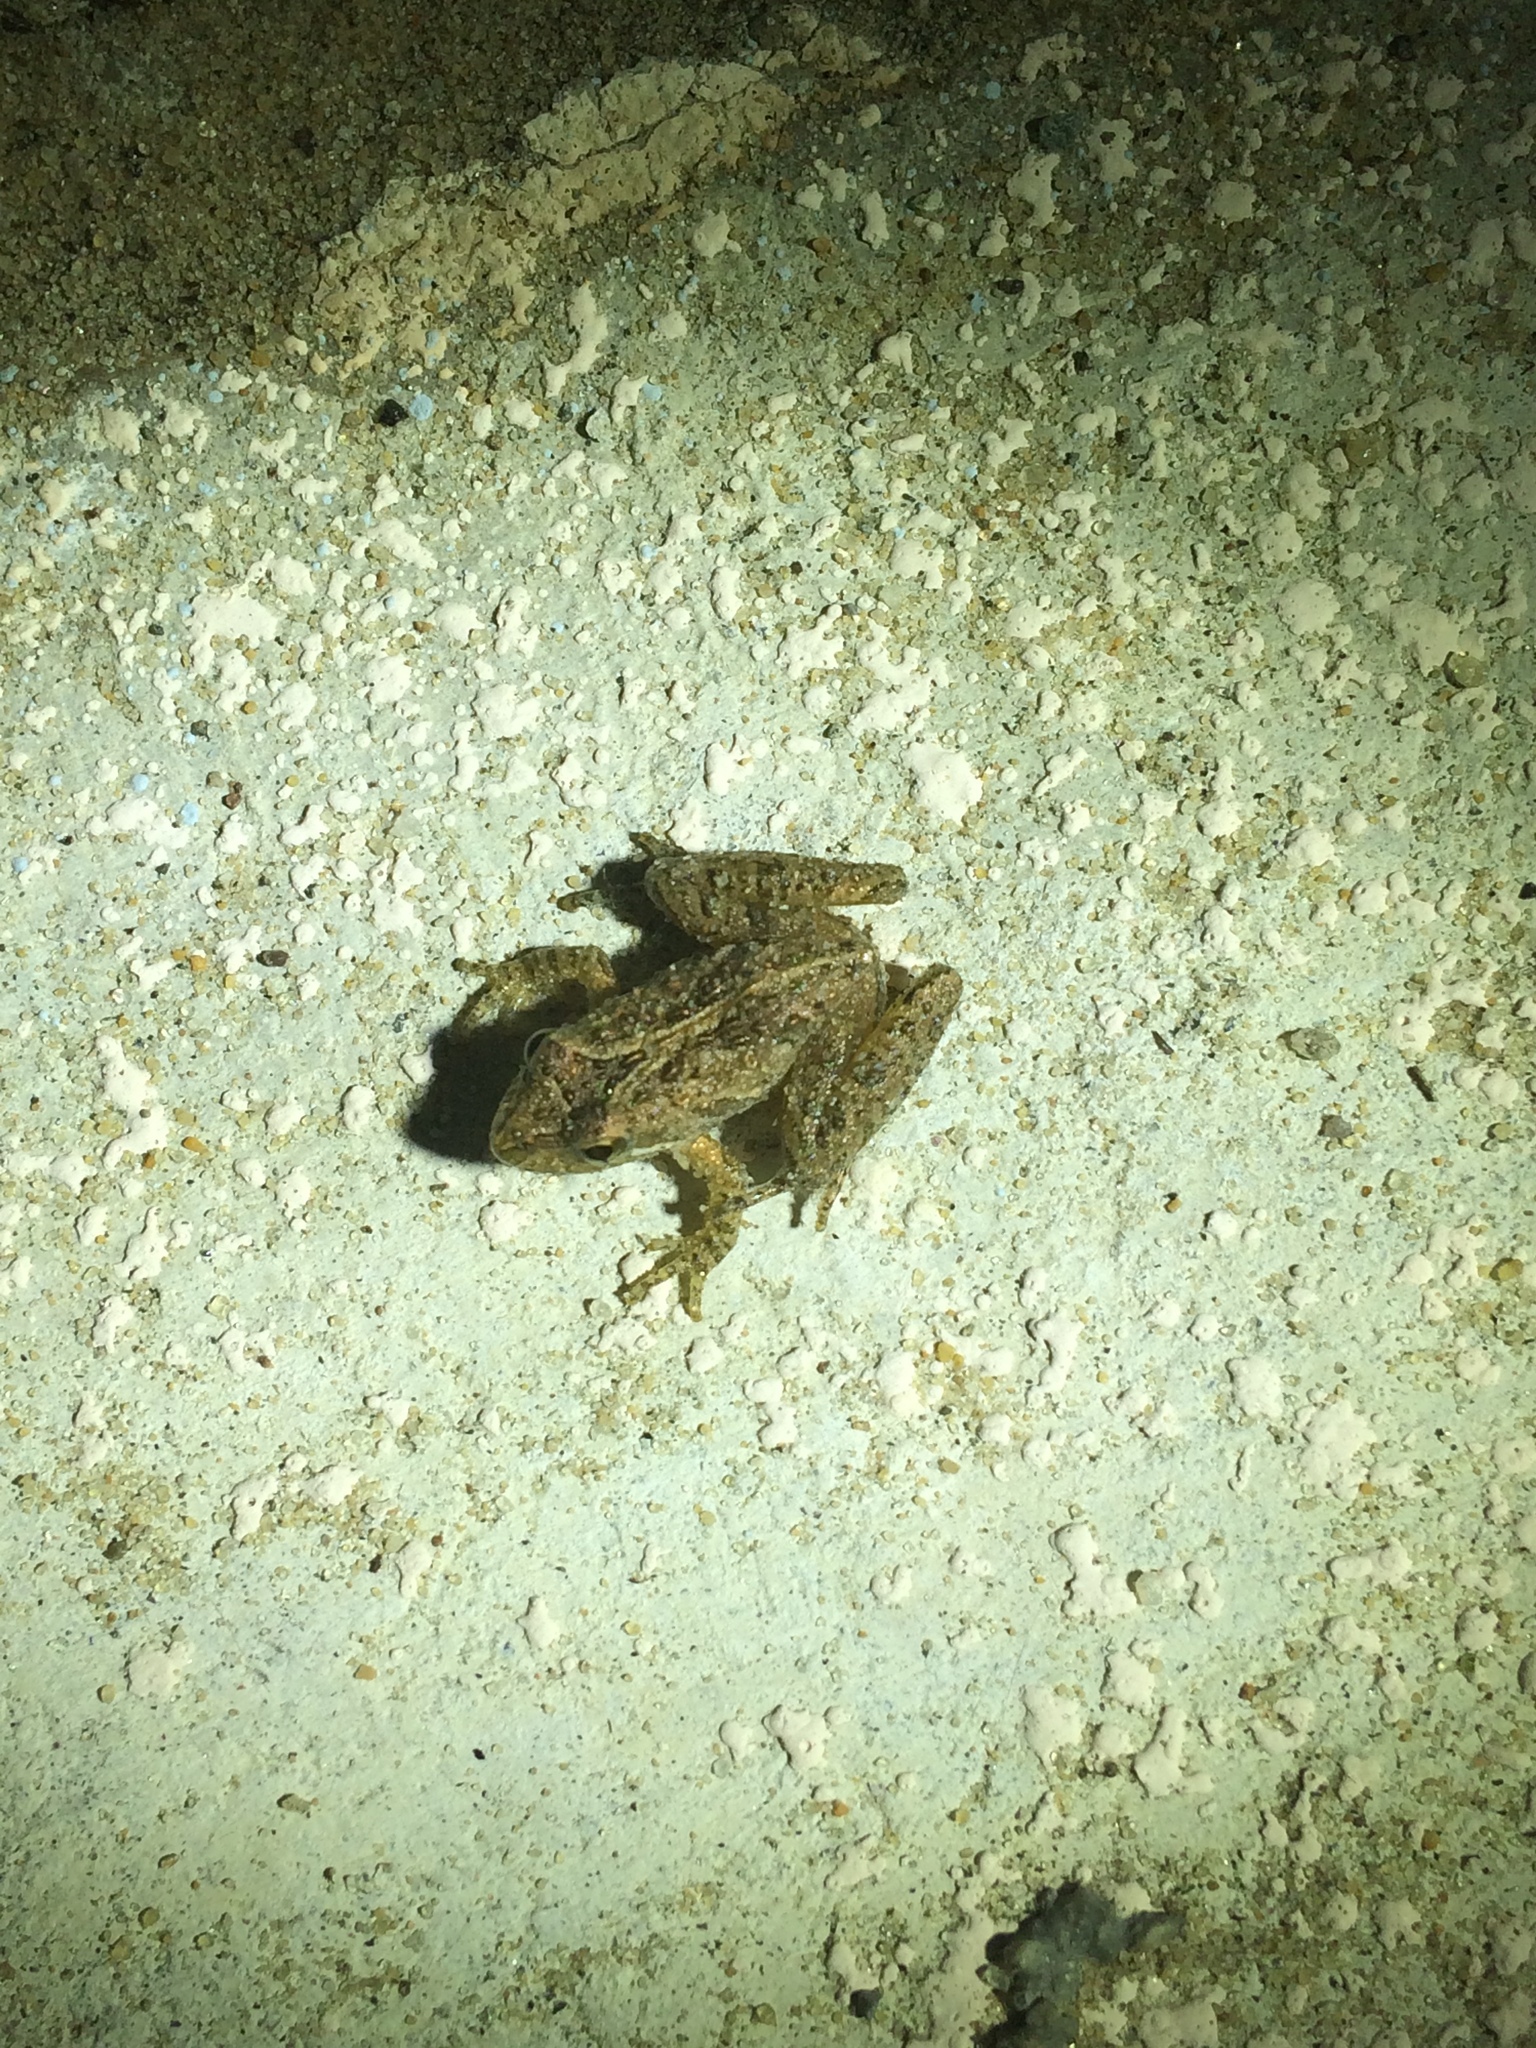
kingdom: Animalia
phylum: Chordata
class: Amphibia
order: Anura
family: Hylidae
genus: Acris
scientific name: Acris gryllus
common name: Southern cricket frog
